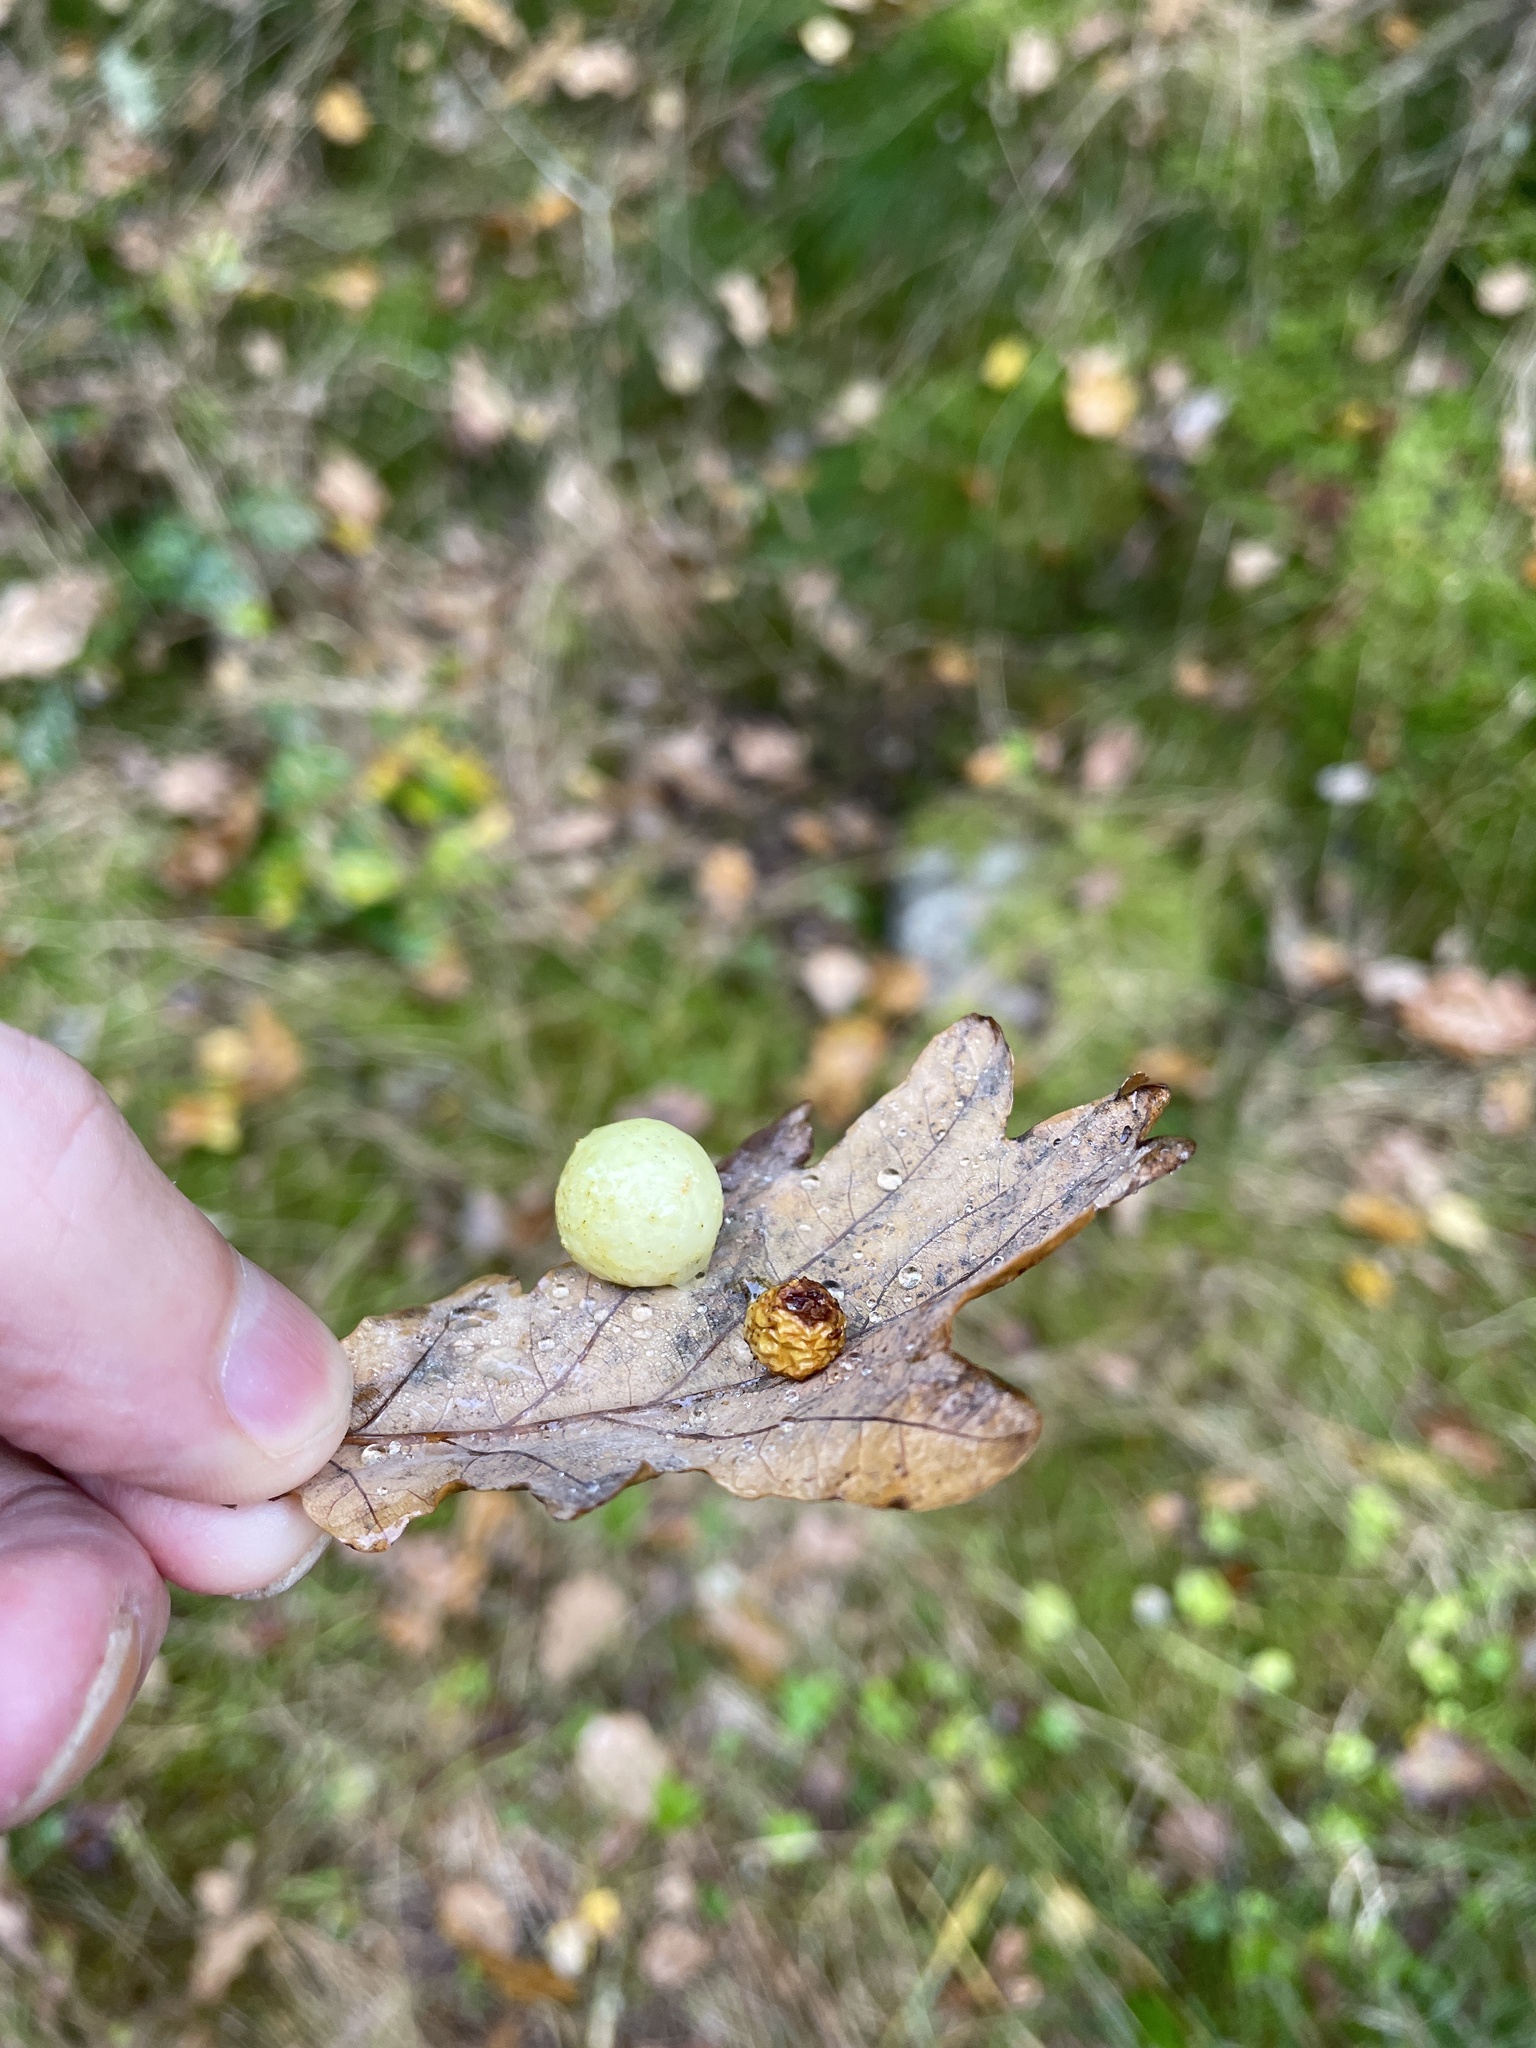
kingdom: Animalia
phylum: Arthropoda
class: Insecta
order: Hymenoptera
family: Cynipidae
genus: Cynips
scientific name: Cynips quercusfolii
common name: Cherry gall
